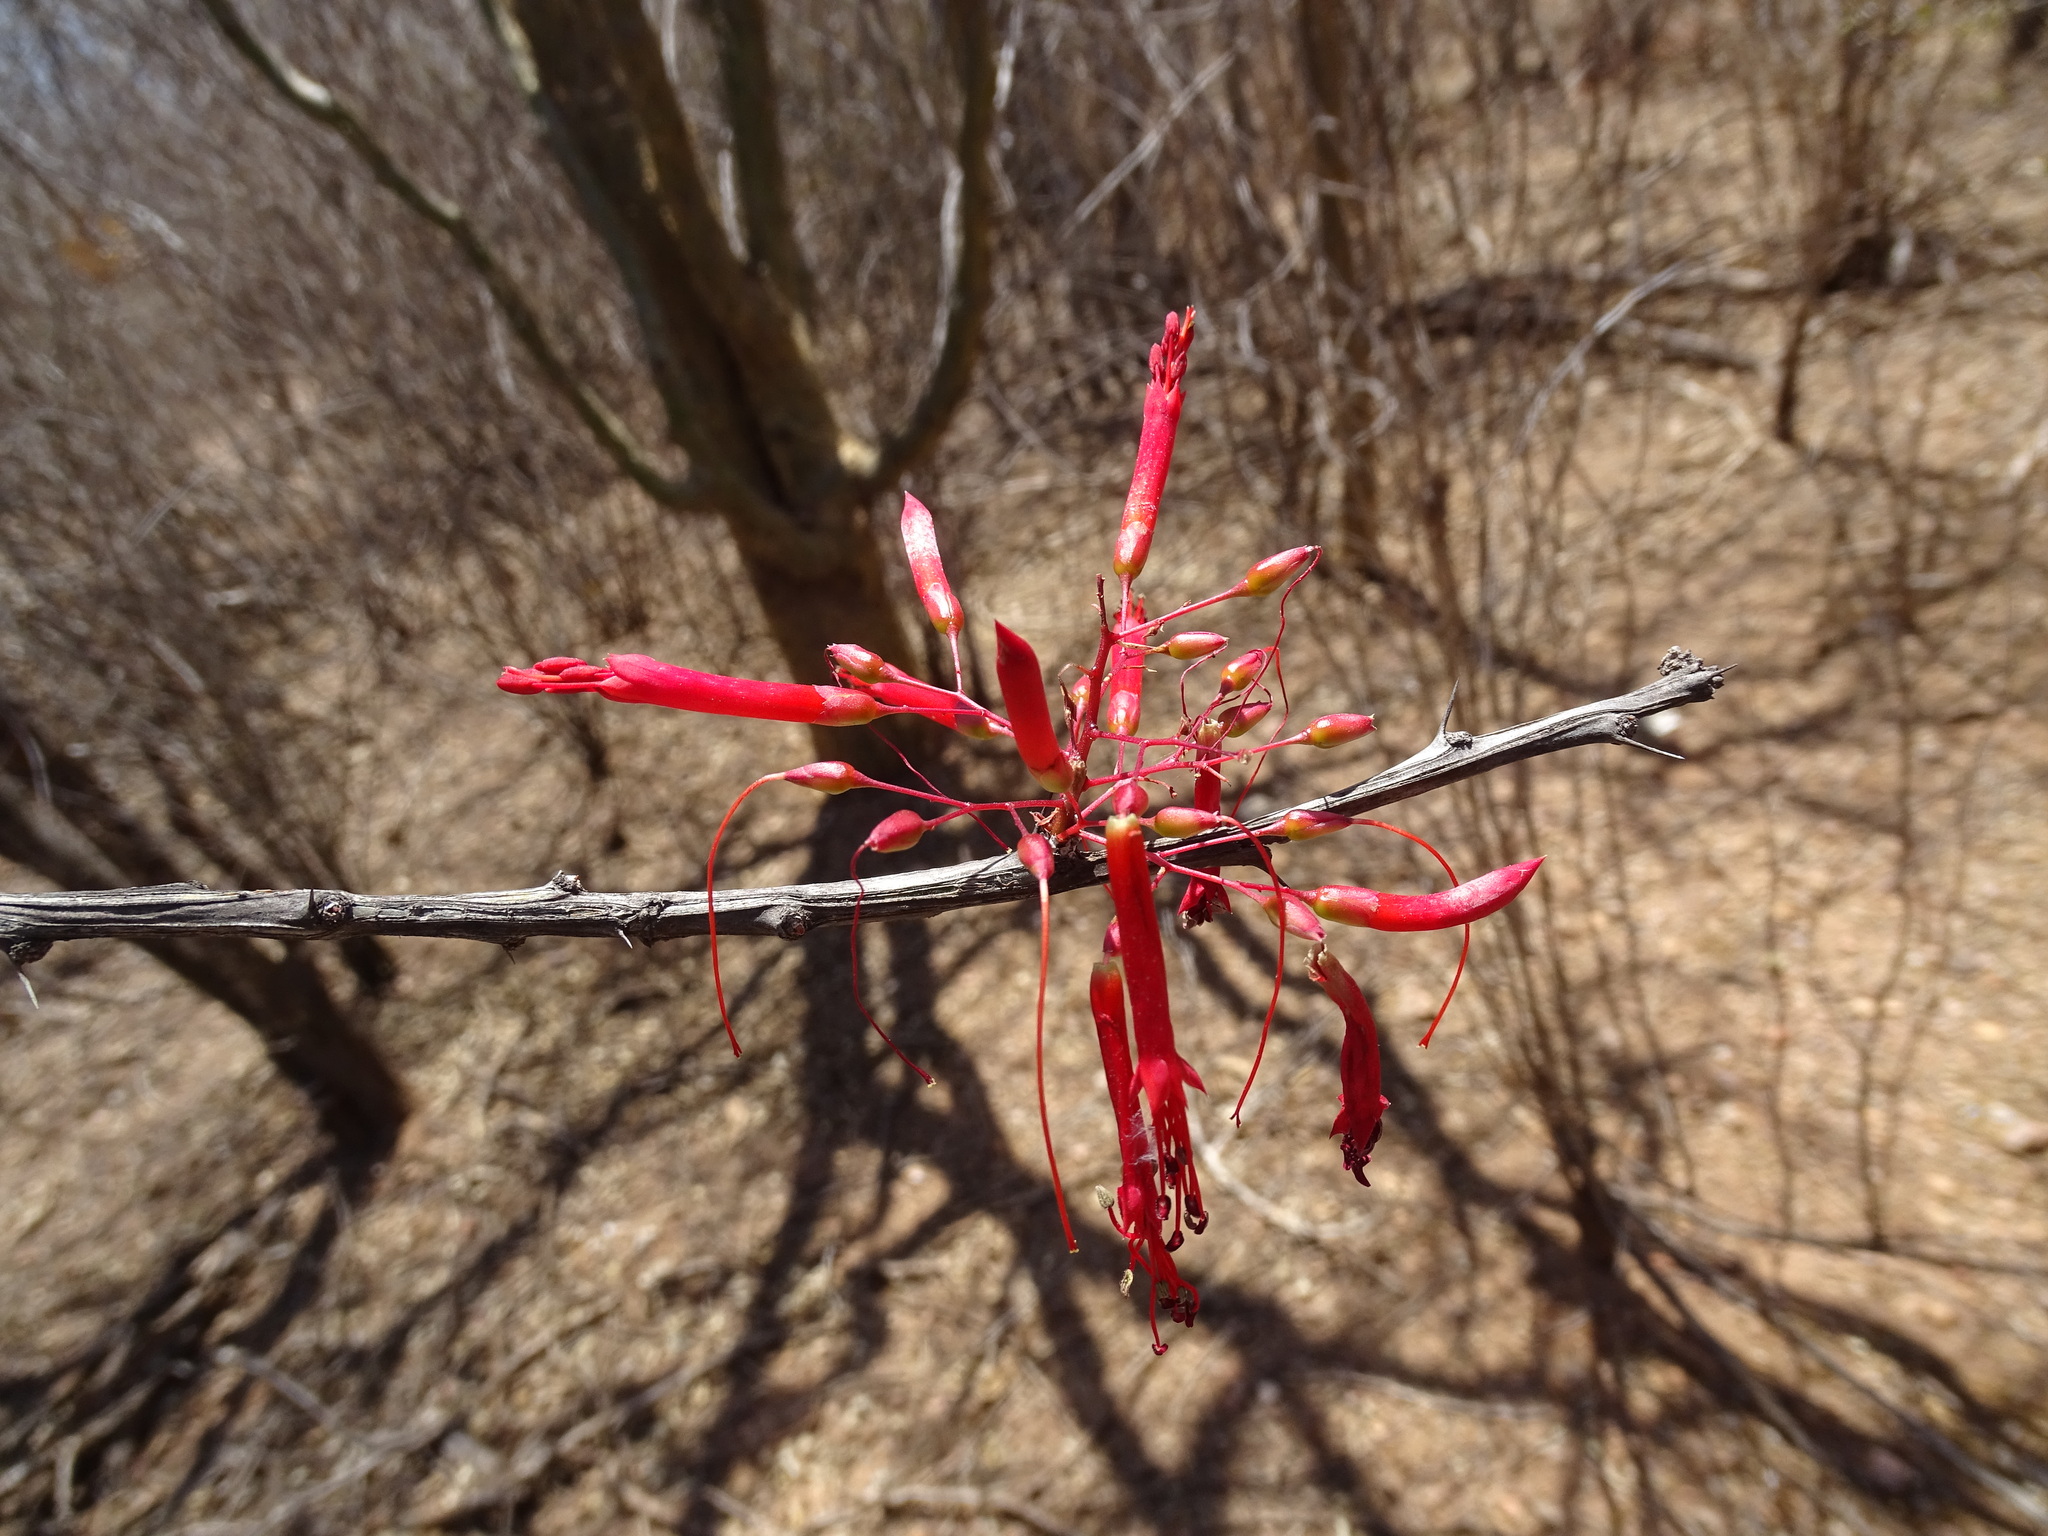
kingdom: Plantae
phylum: Tracheophyta
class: Magnoliopsida
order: Ericales
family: Fouquieriaceae
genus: Fouquieria
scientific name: Fouquieria macdougalii
